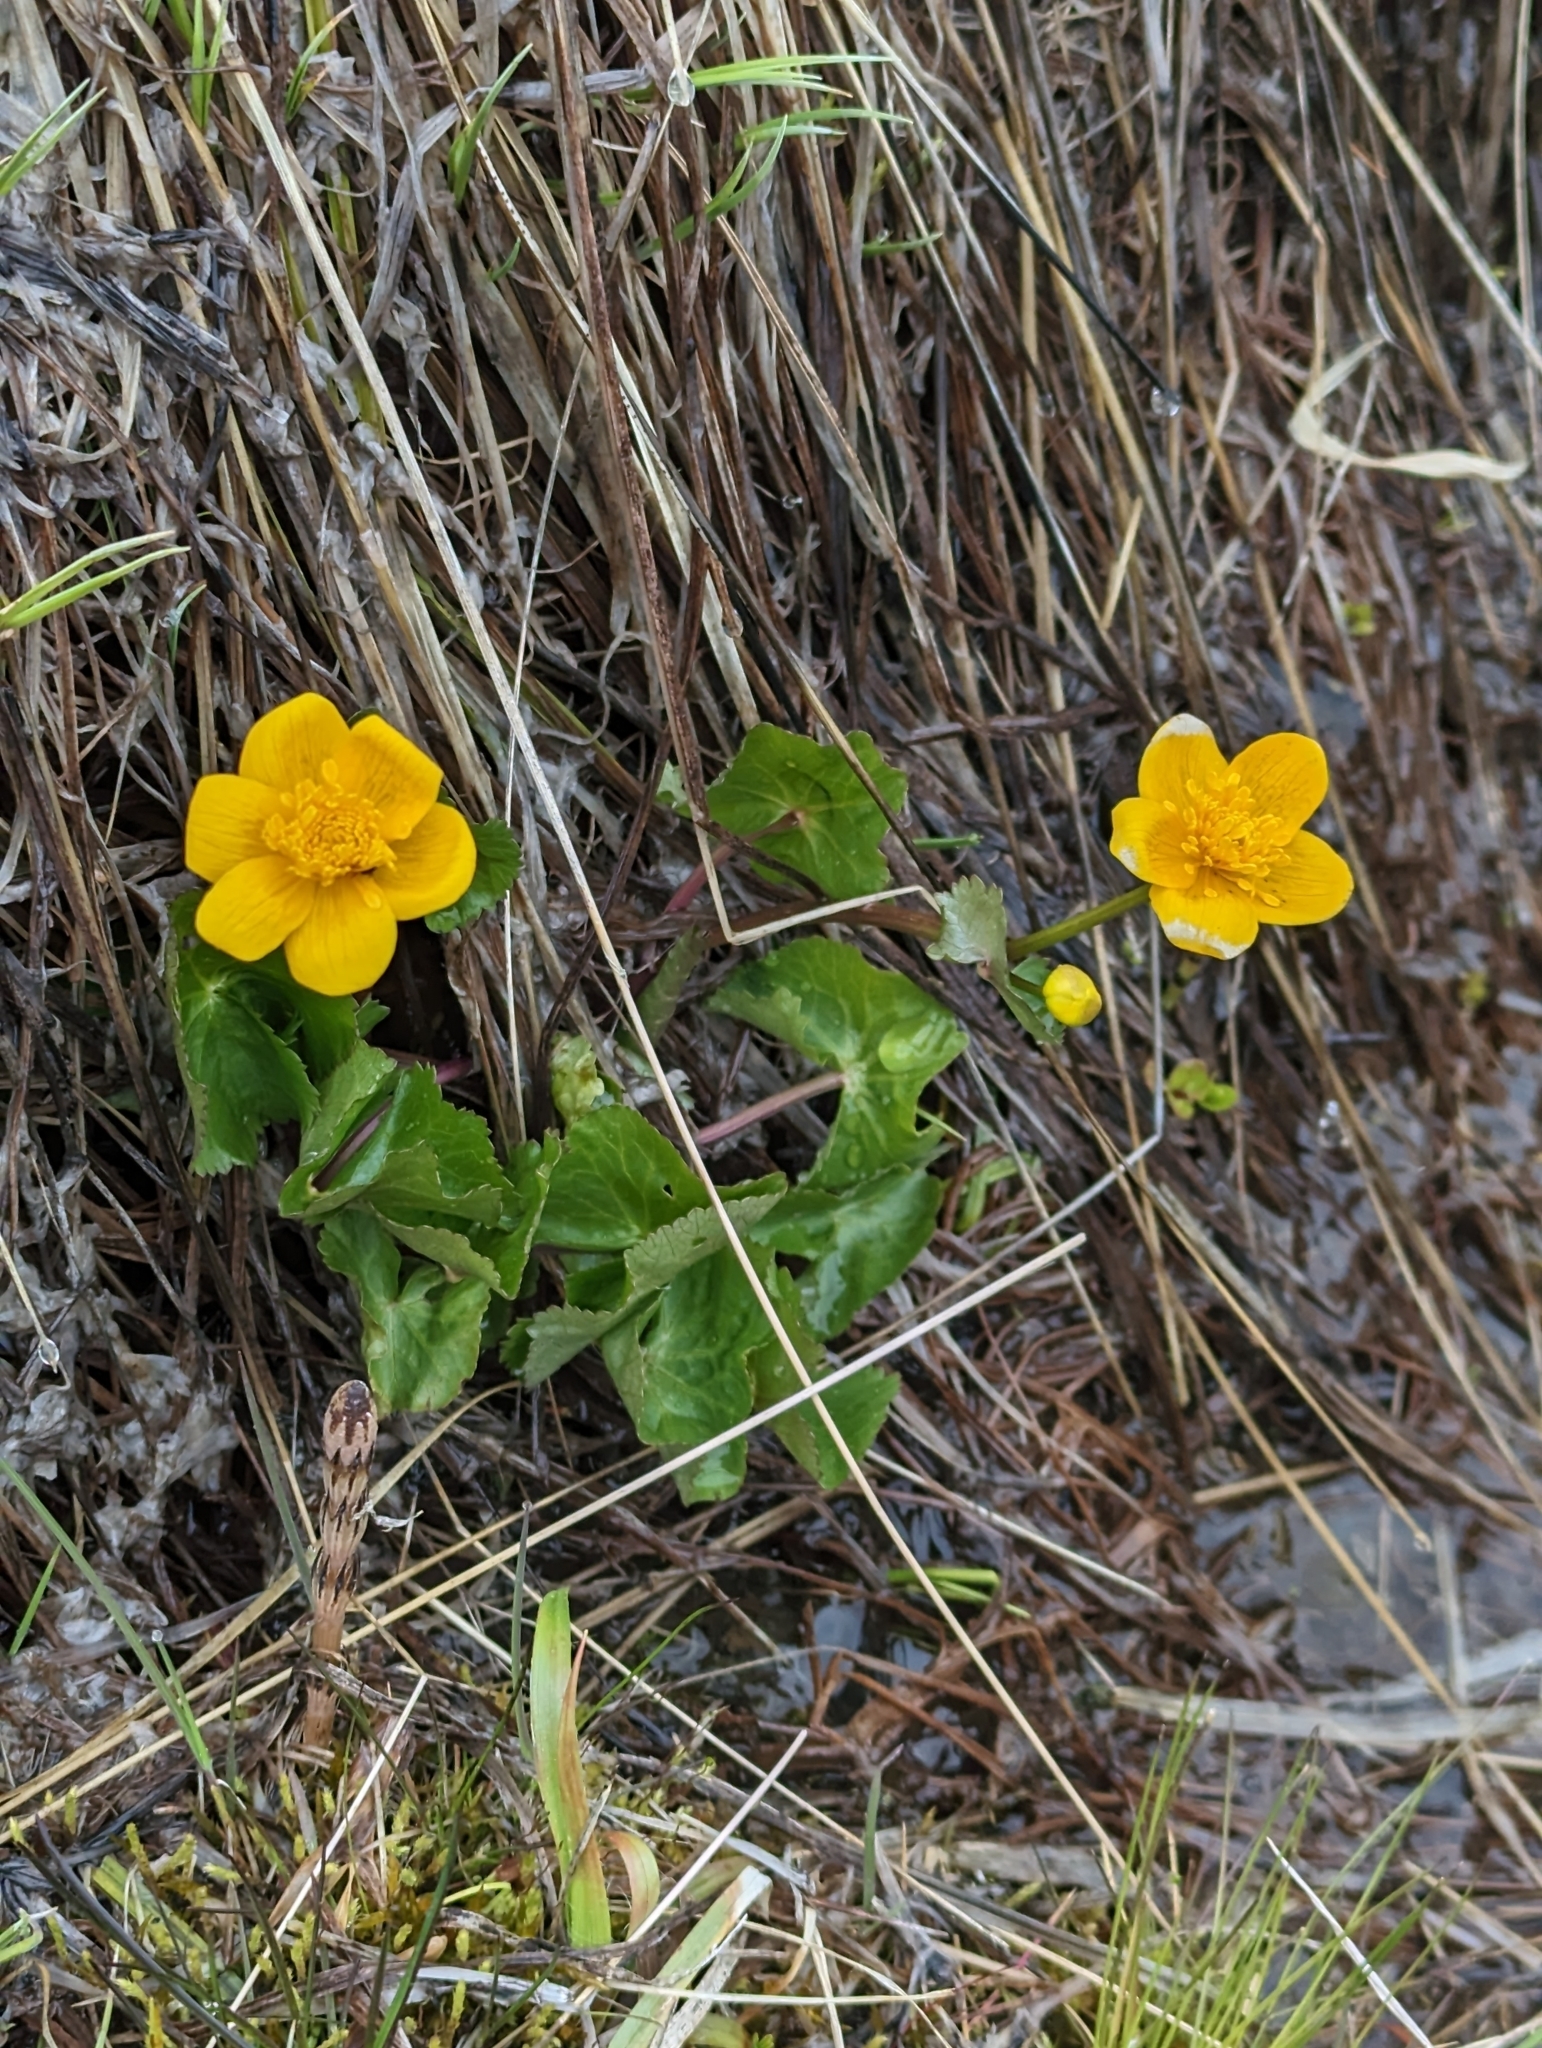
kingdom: Plantae
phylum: Tracheophyta
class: Magnoliopsida
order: Ranunculales
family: Ranunculaceae
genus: Caltha
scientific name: Caltha palustris
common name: Marsh marigold
